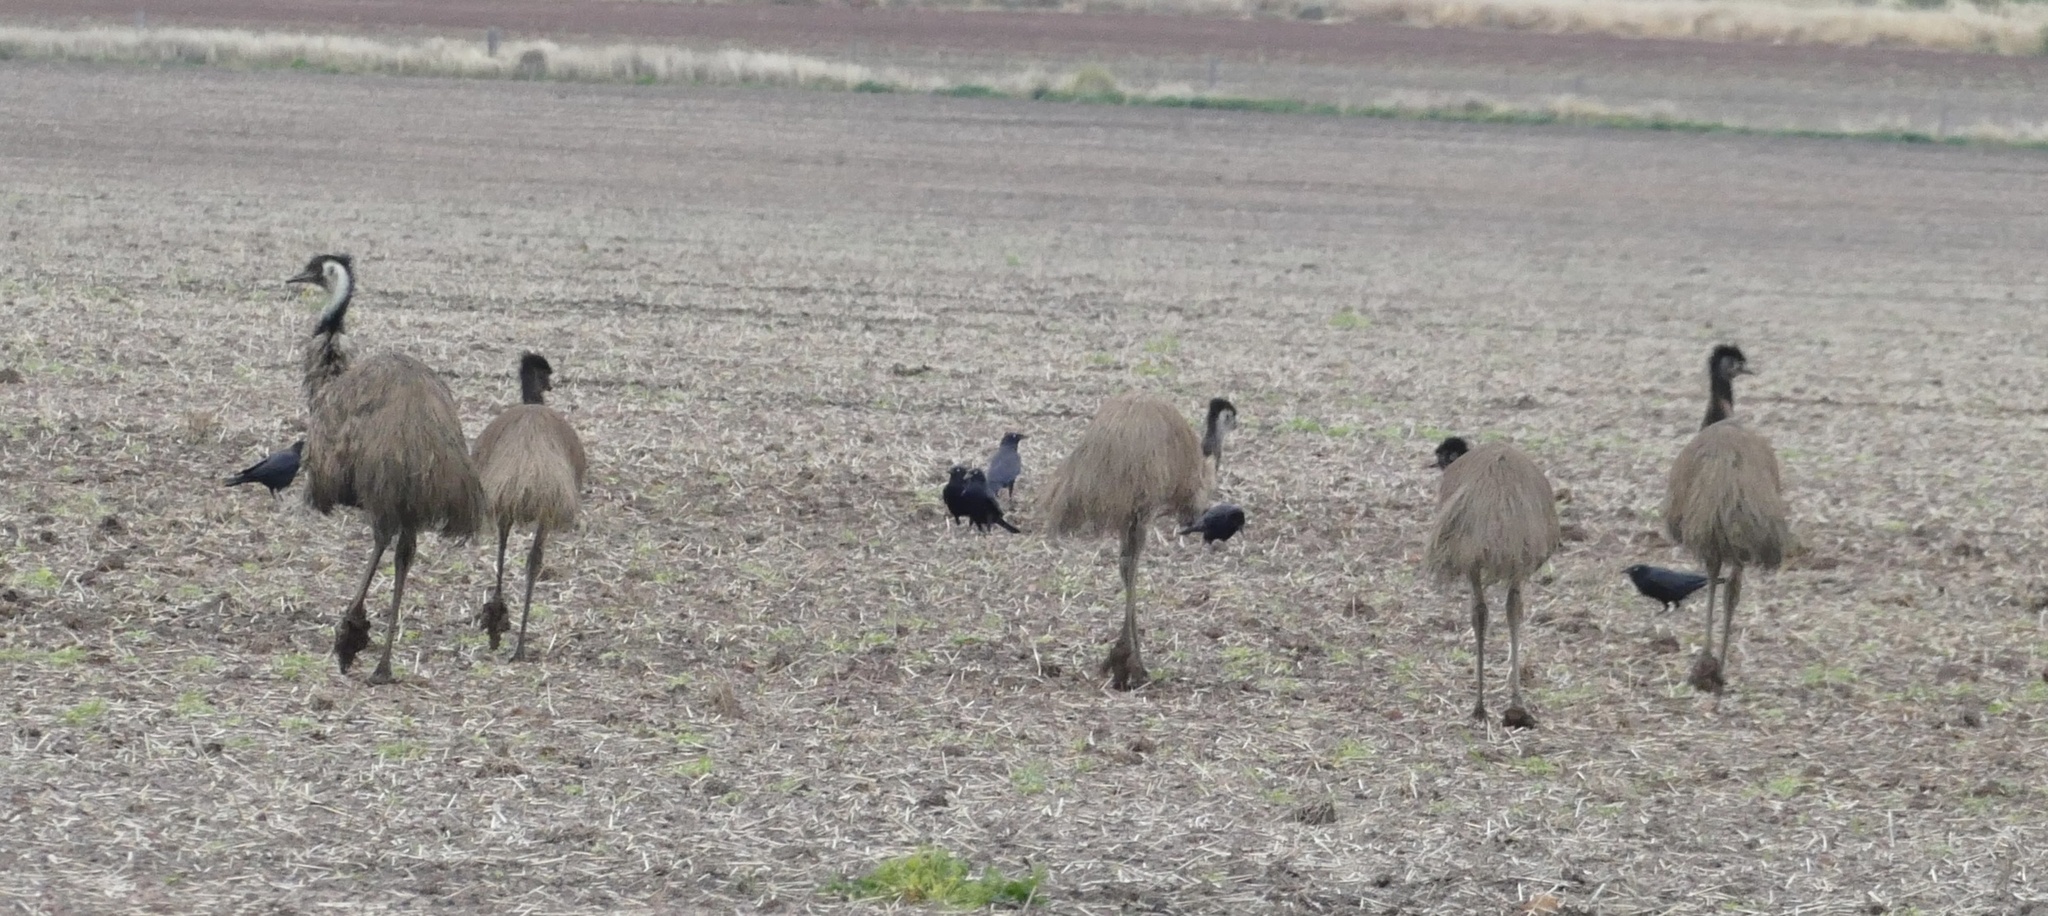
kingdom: Animalia
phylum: Chordata
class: Aves
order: Casuariiformes
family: Dromaiidae
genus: Dromaius
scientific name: Dromaius novaehollandiae
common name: Emu
